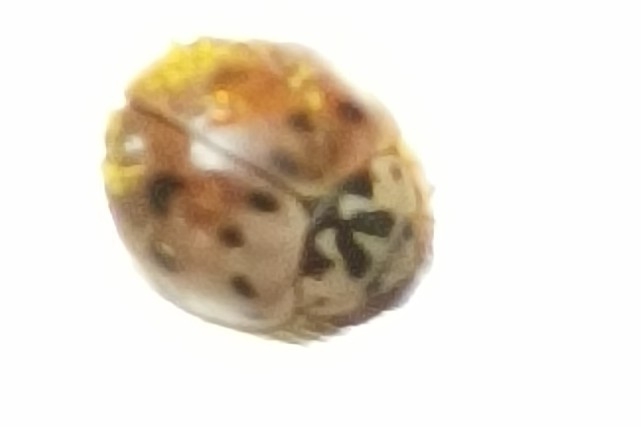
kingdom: Animalia
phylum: Arthropoda
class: Insecta
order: Coleoptera
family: Coccinellidae
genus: Olla
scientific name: Olla v-nigrum
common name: Ashy gray lady beetle
